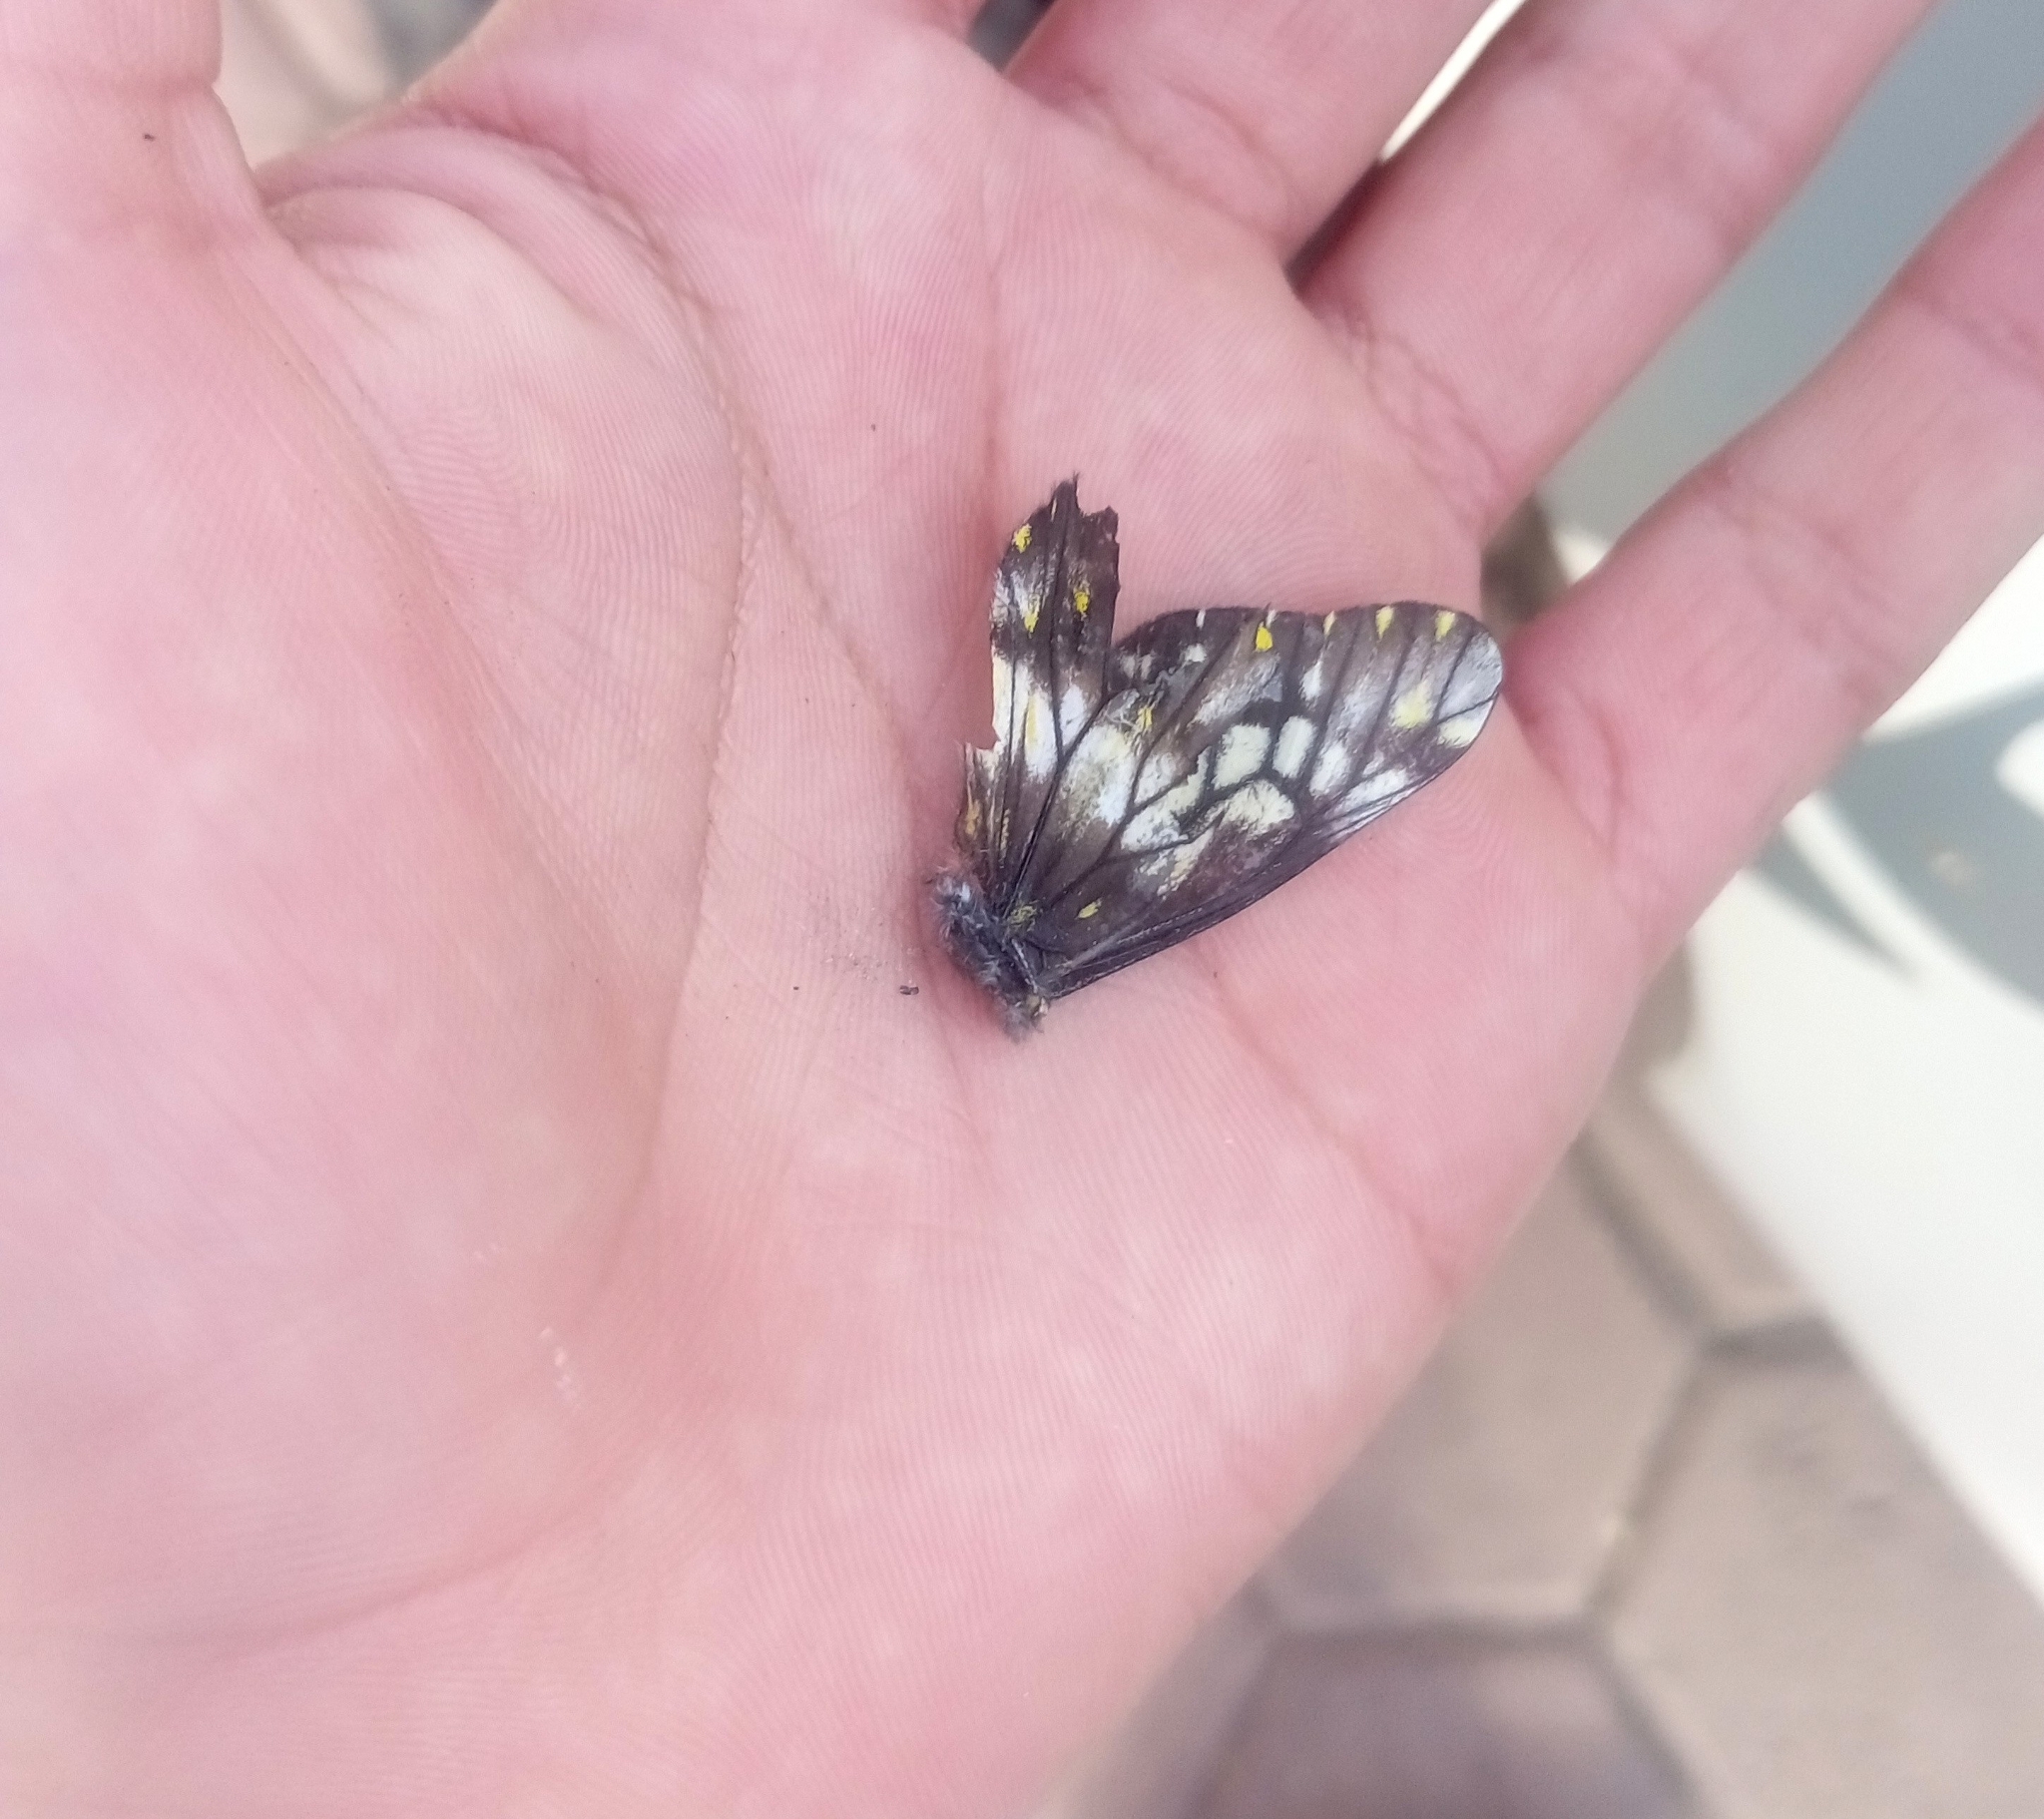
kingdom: Animalia
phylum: Arthropoda
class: Insecta
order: Lepidoptera
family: Pieridae
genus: Archonias
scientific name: Archonias nimbice
